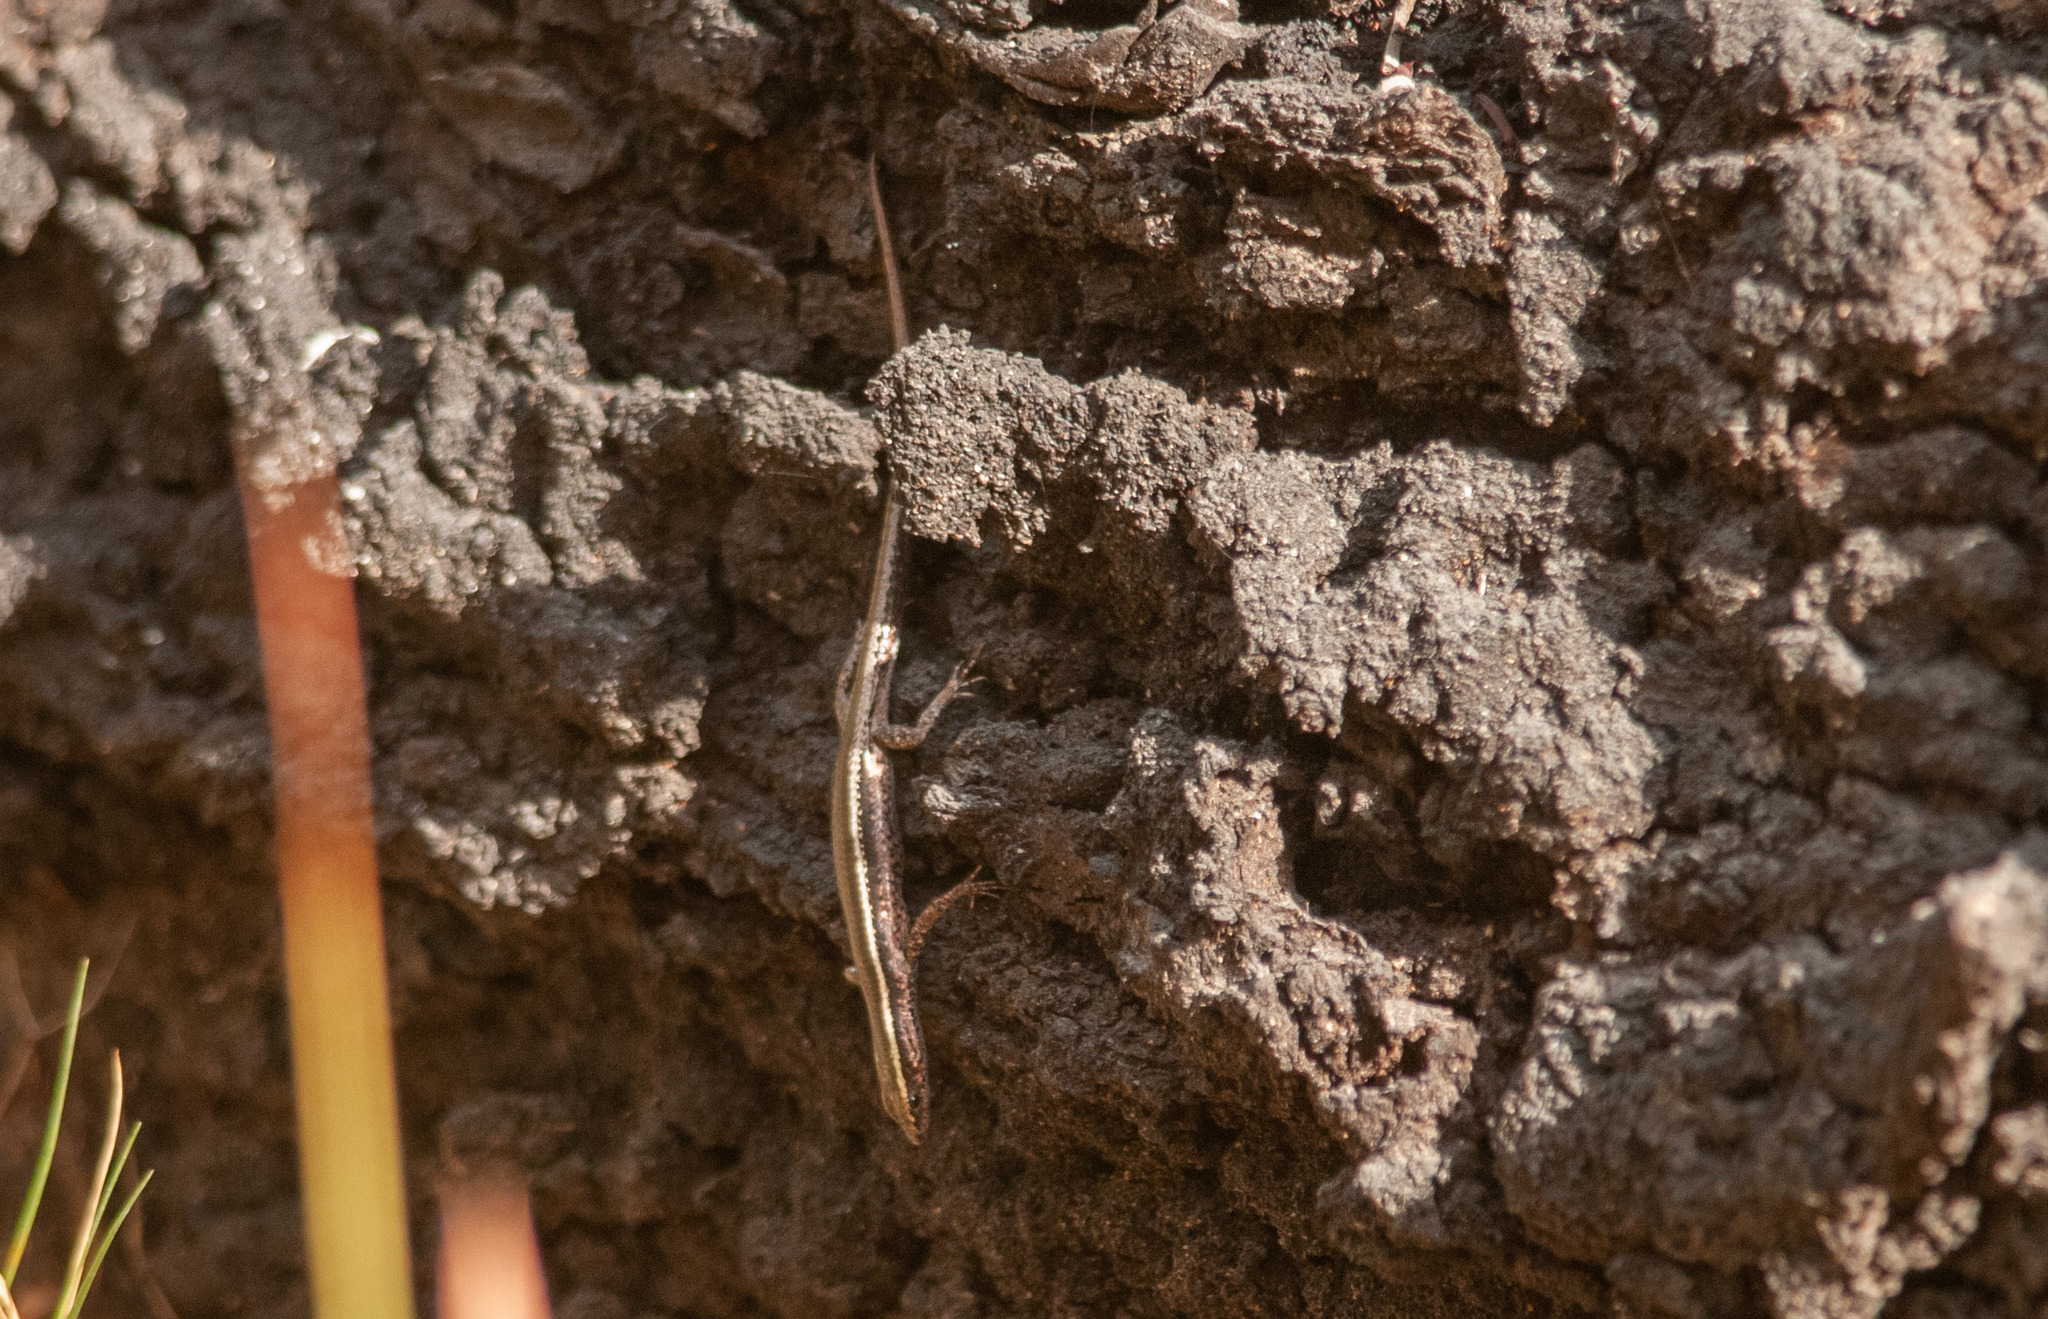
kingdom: Animalia
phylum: Chordata
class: Squamata
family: Scincidae
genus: Cryptoblepharus
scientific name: Cryptoblepharus pulcher
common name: Elegant snake-eyed skink
